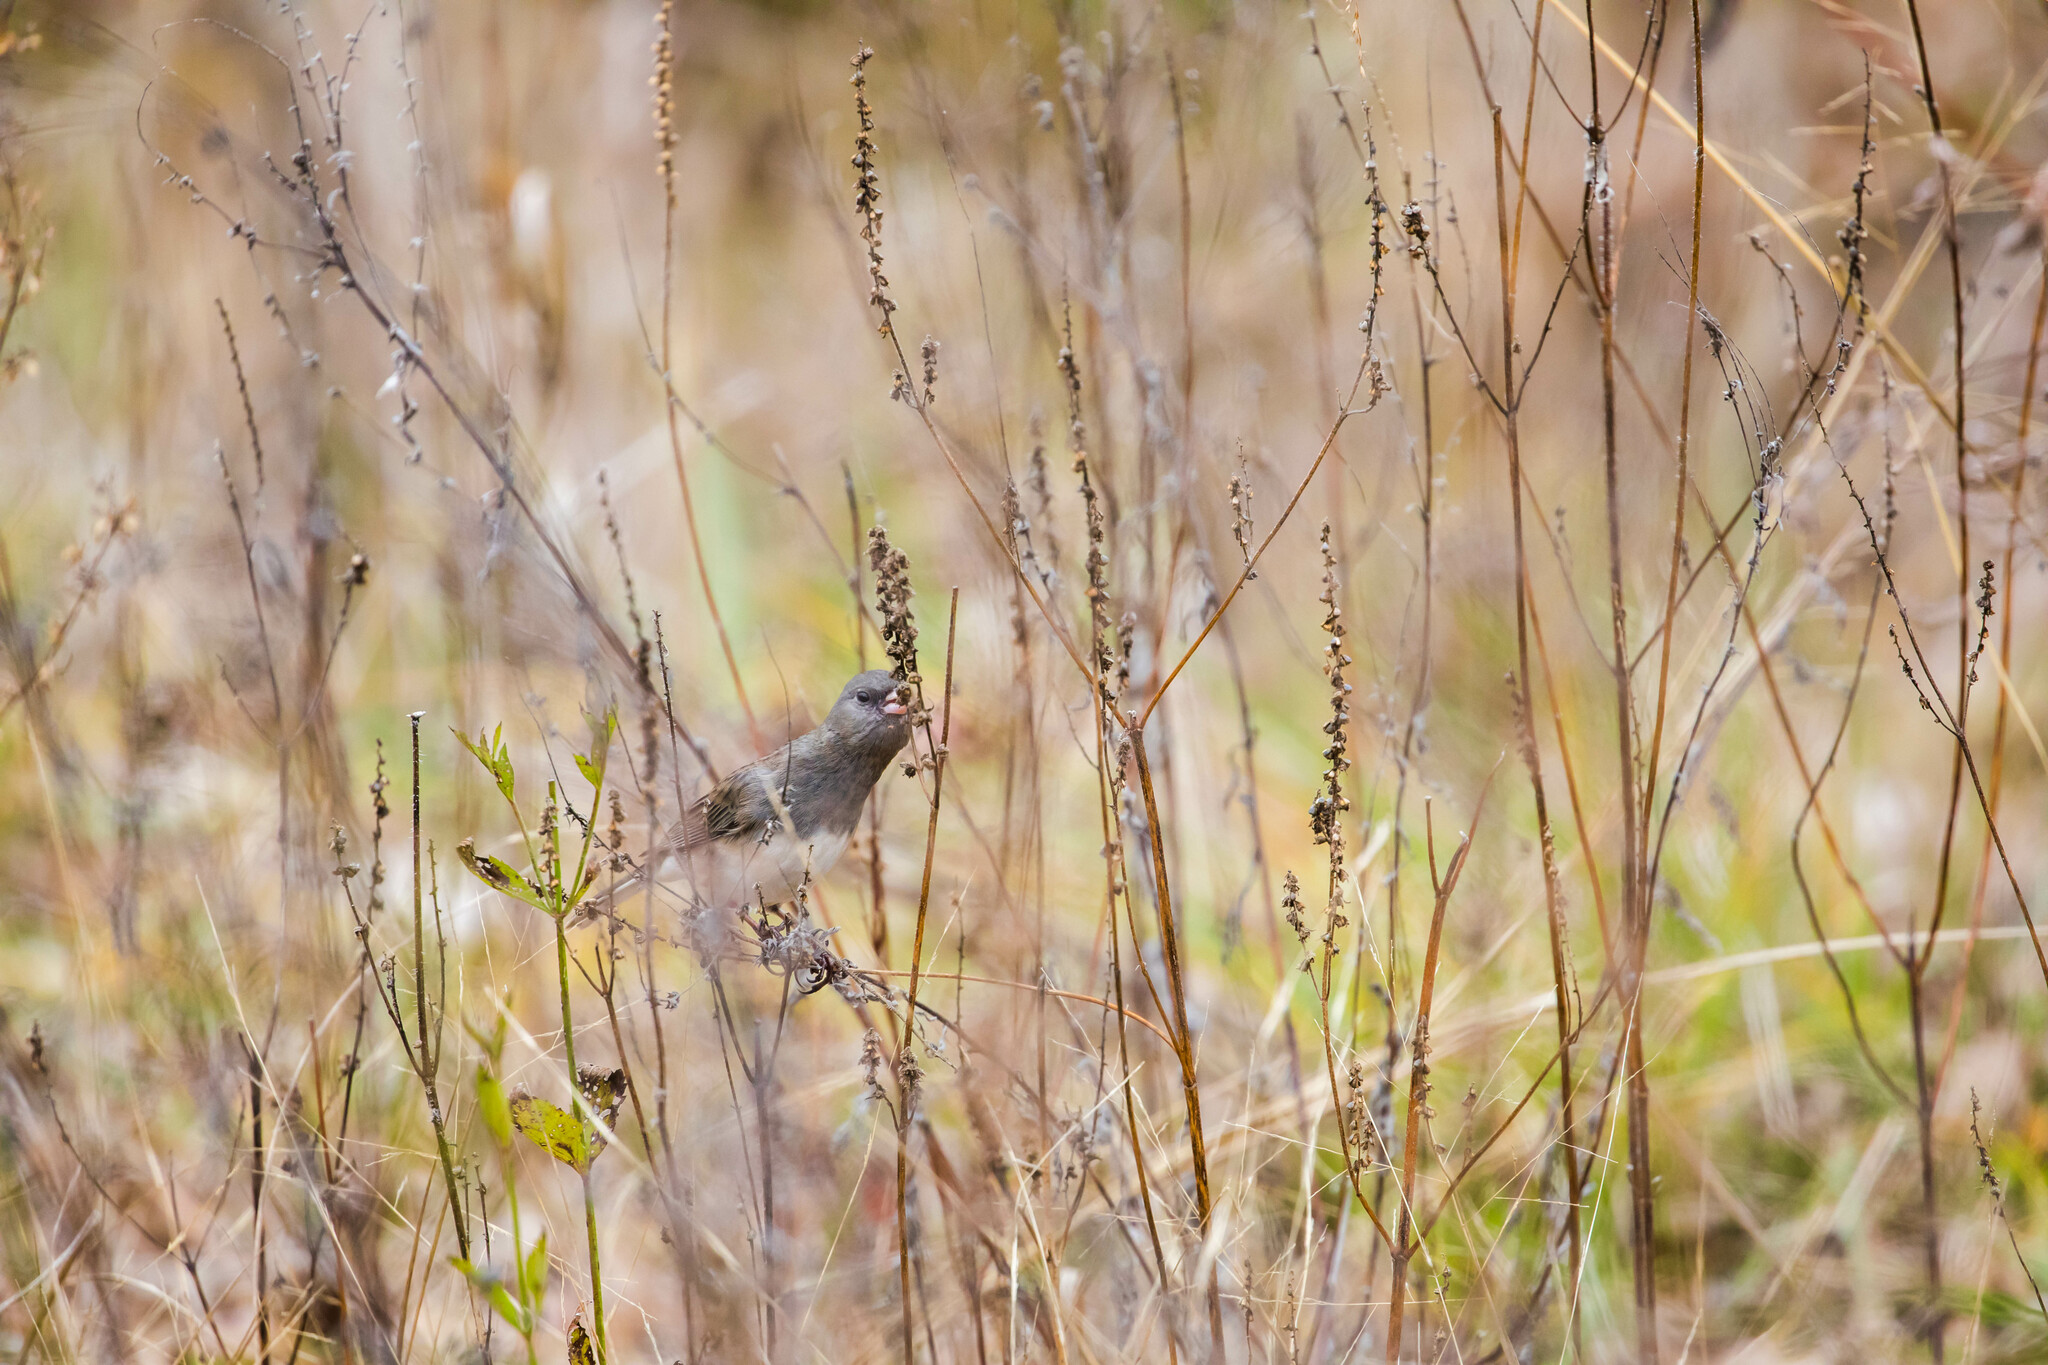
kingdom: Animalia
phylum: Chordata
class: Aves
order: Passeriformes
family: Passerellidae
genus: Junco
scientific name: Junco hyemalis
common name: Dark-eyed junco
